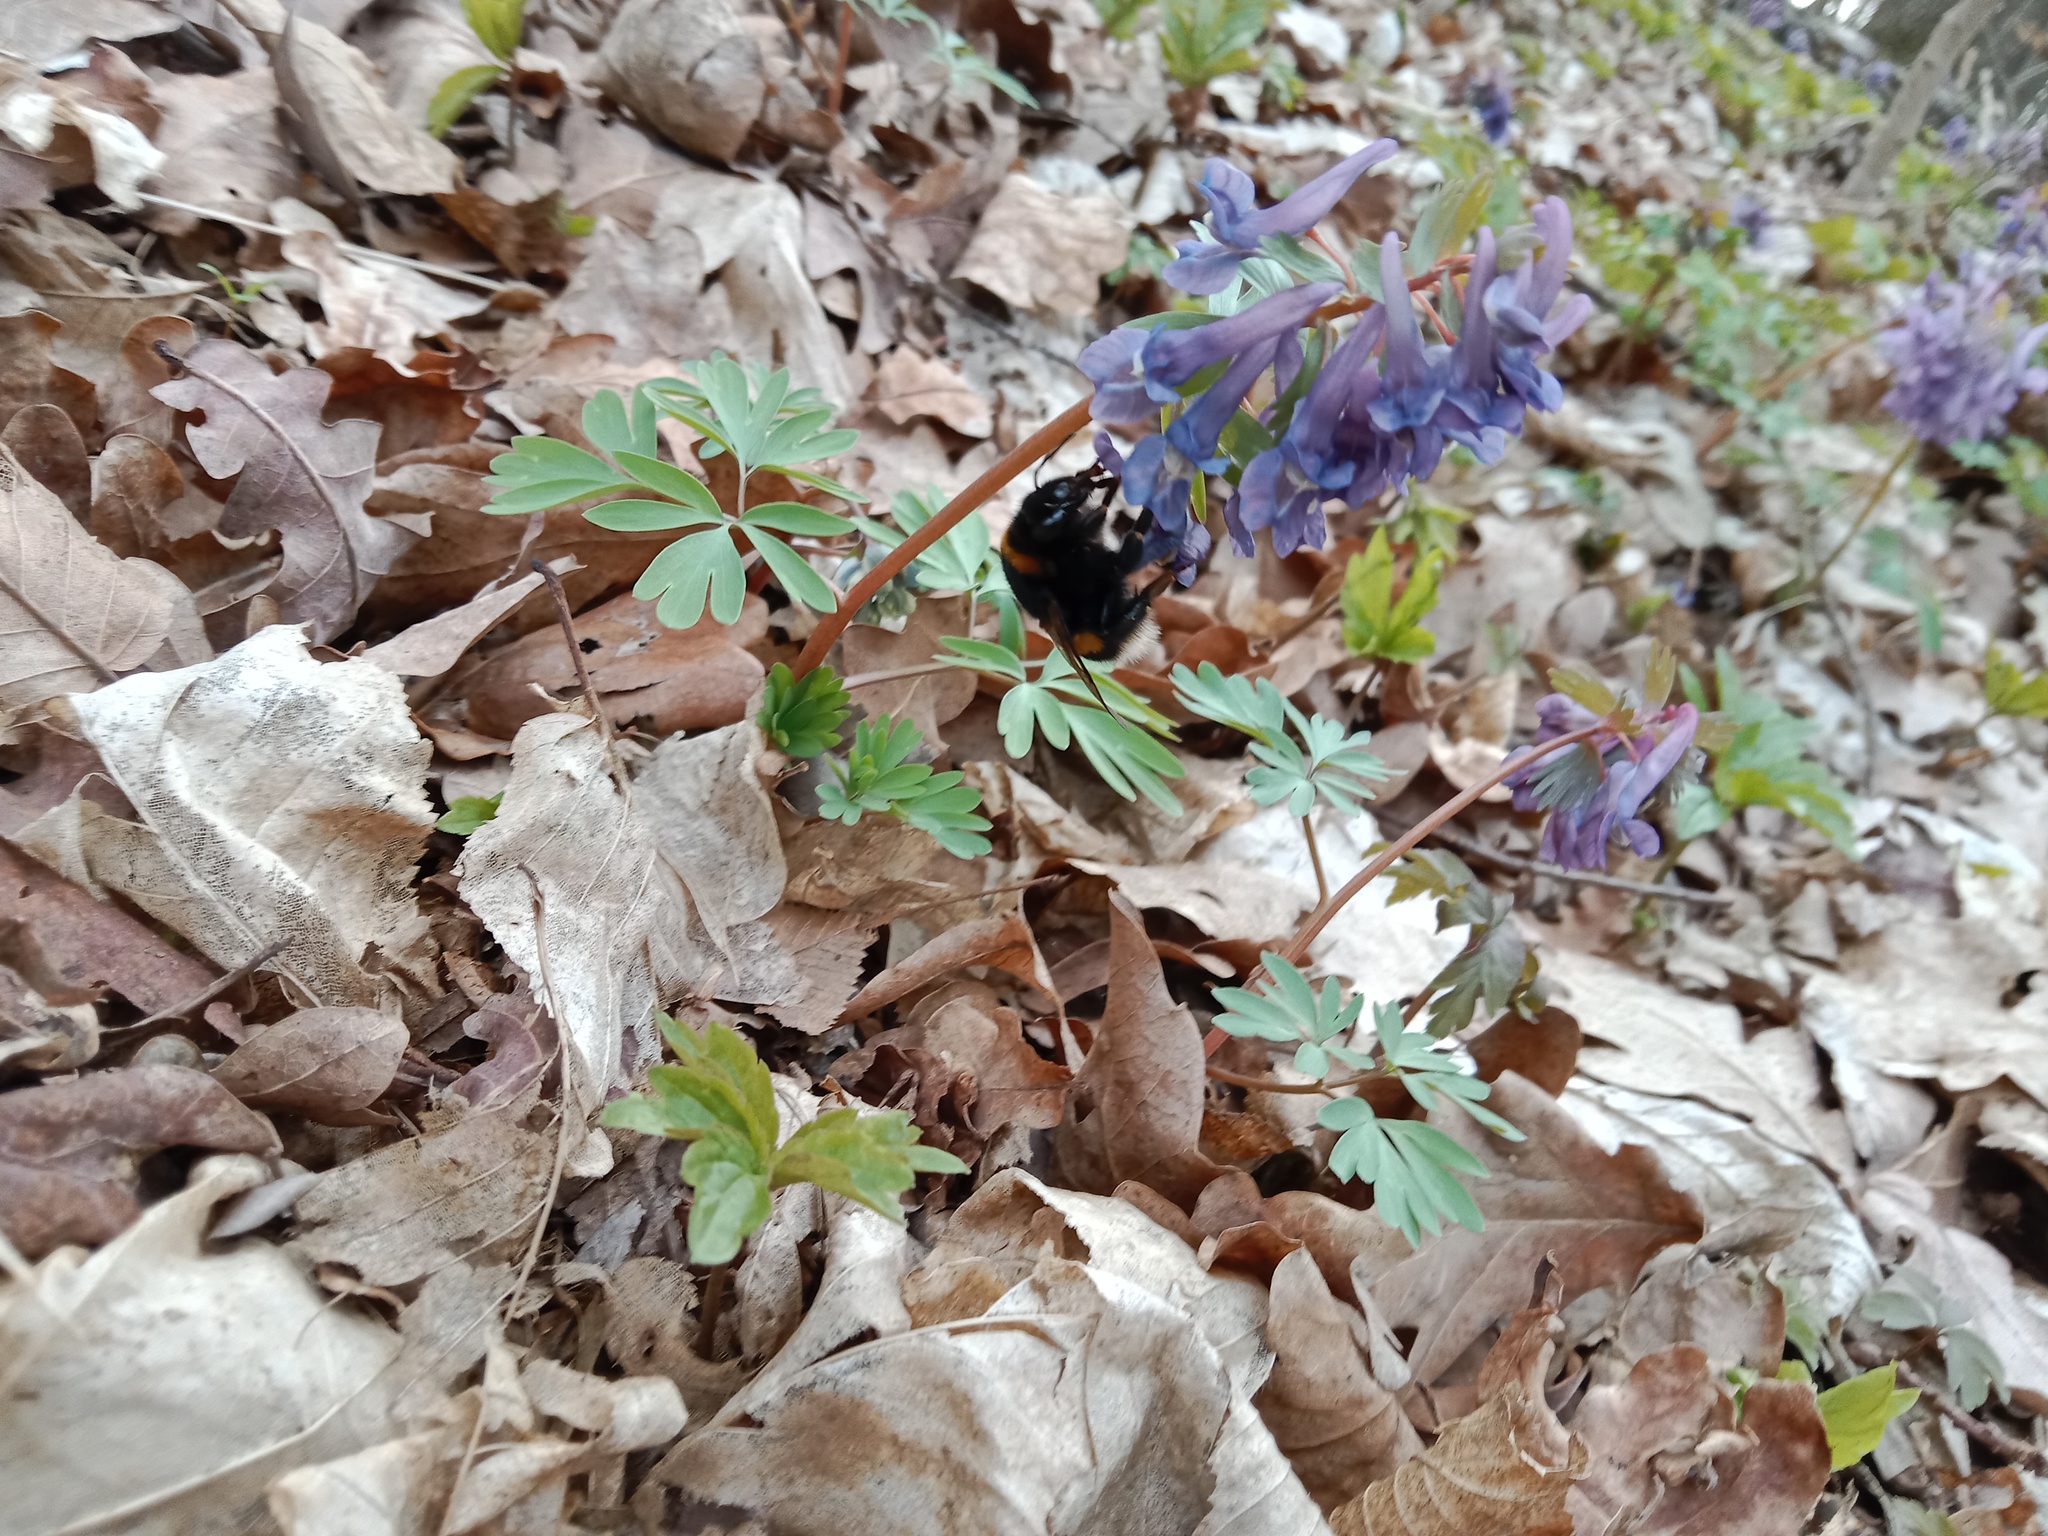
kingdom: Plantae
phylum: Tracheophyta
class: Magnoliopsida
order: Ranunculales
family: Papaveraceae
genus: Corydalis
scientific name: Corydalis solida
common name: Bird-in-a-bush
